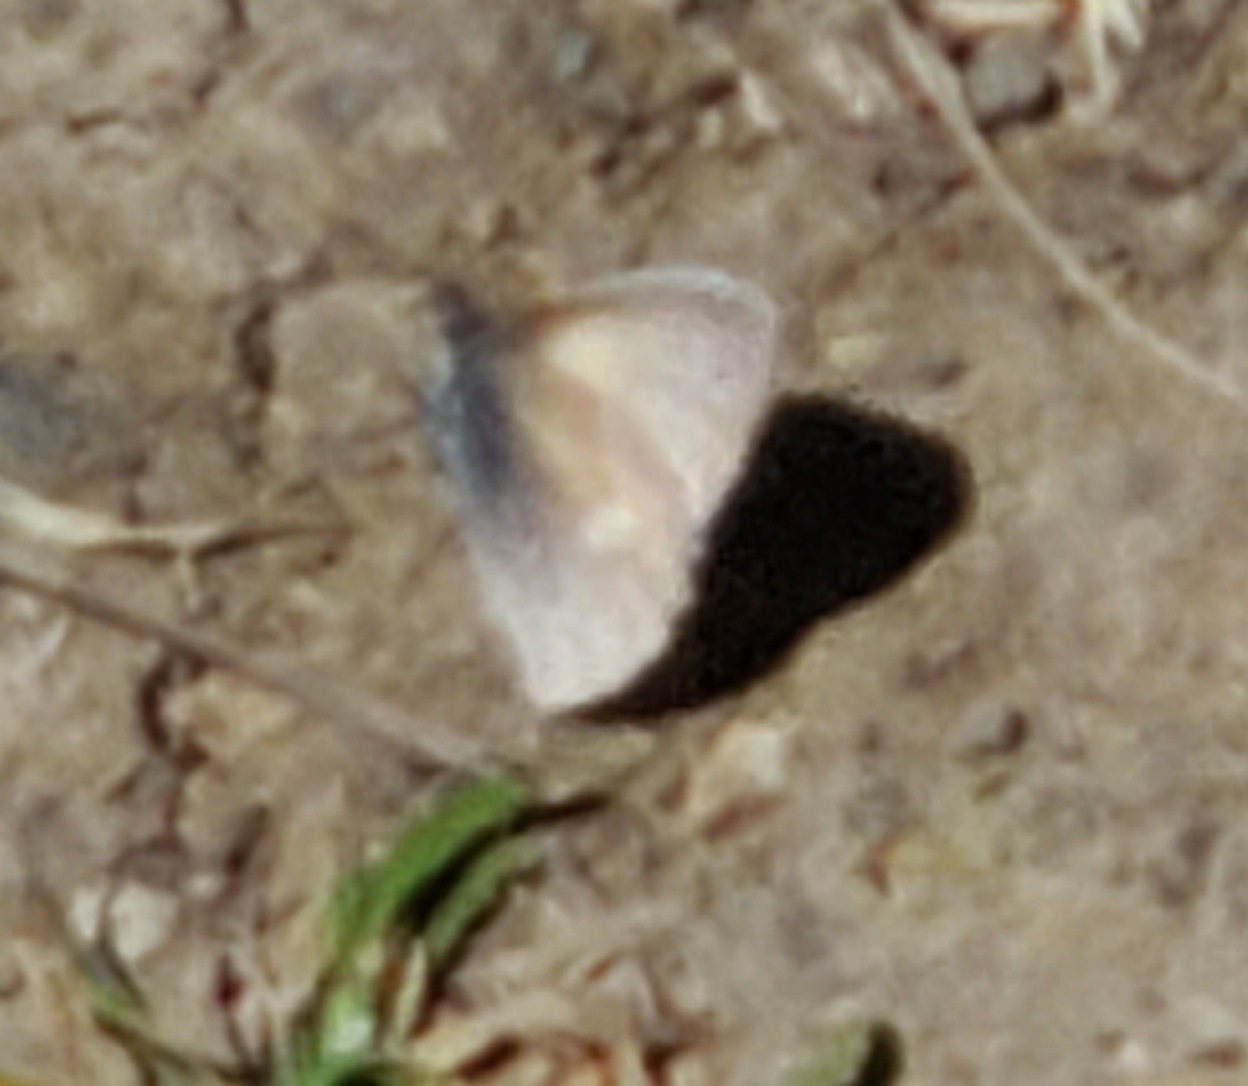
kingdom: Animalia
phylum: Arthropoda
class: Insecta
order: Lepidoptera
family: Nymphalidae
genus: Coenonympha
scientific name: Coenonympha california
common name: Common ringlet
